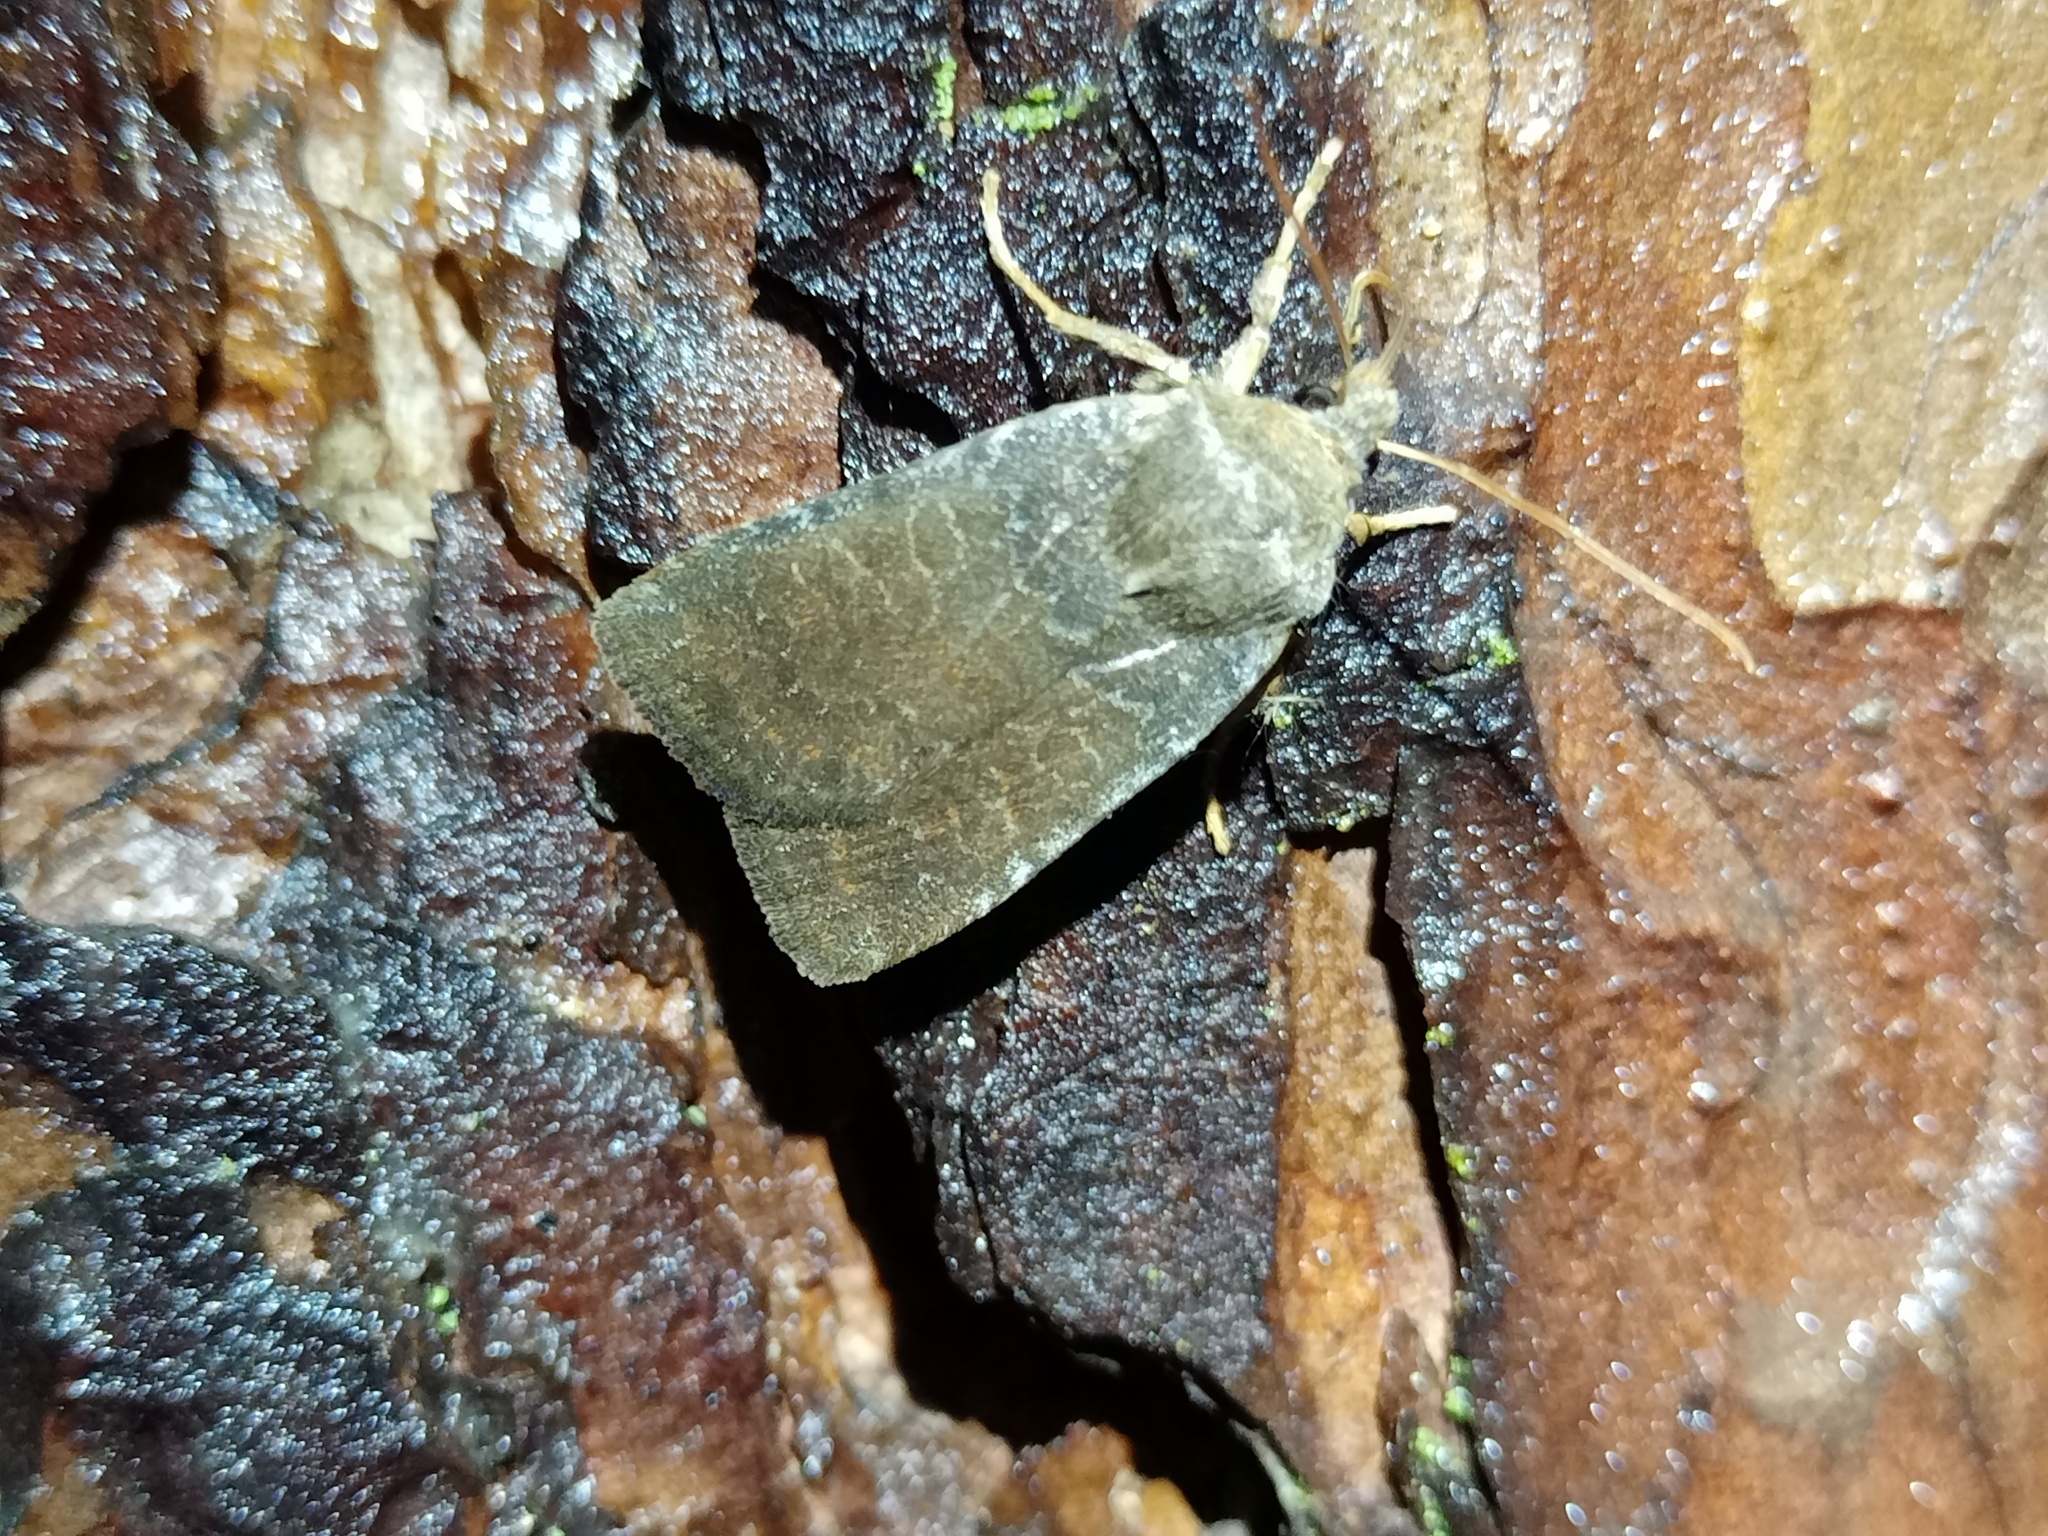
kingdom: Animalia
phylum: Arthropoda
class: Insecta
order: Lepidoptera
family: Noctuidae
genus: Conistra
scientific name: Conistra vaccinii
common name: Chestnut
